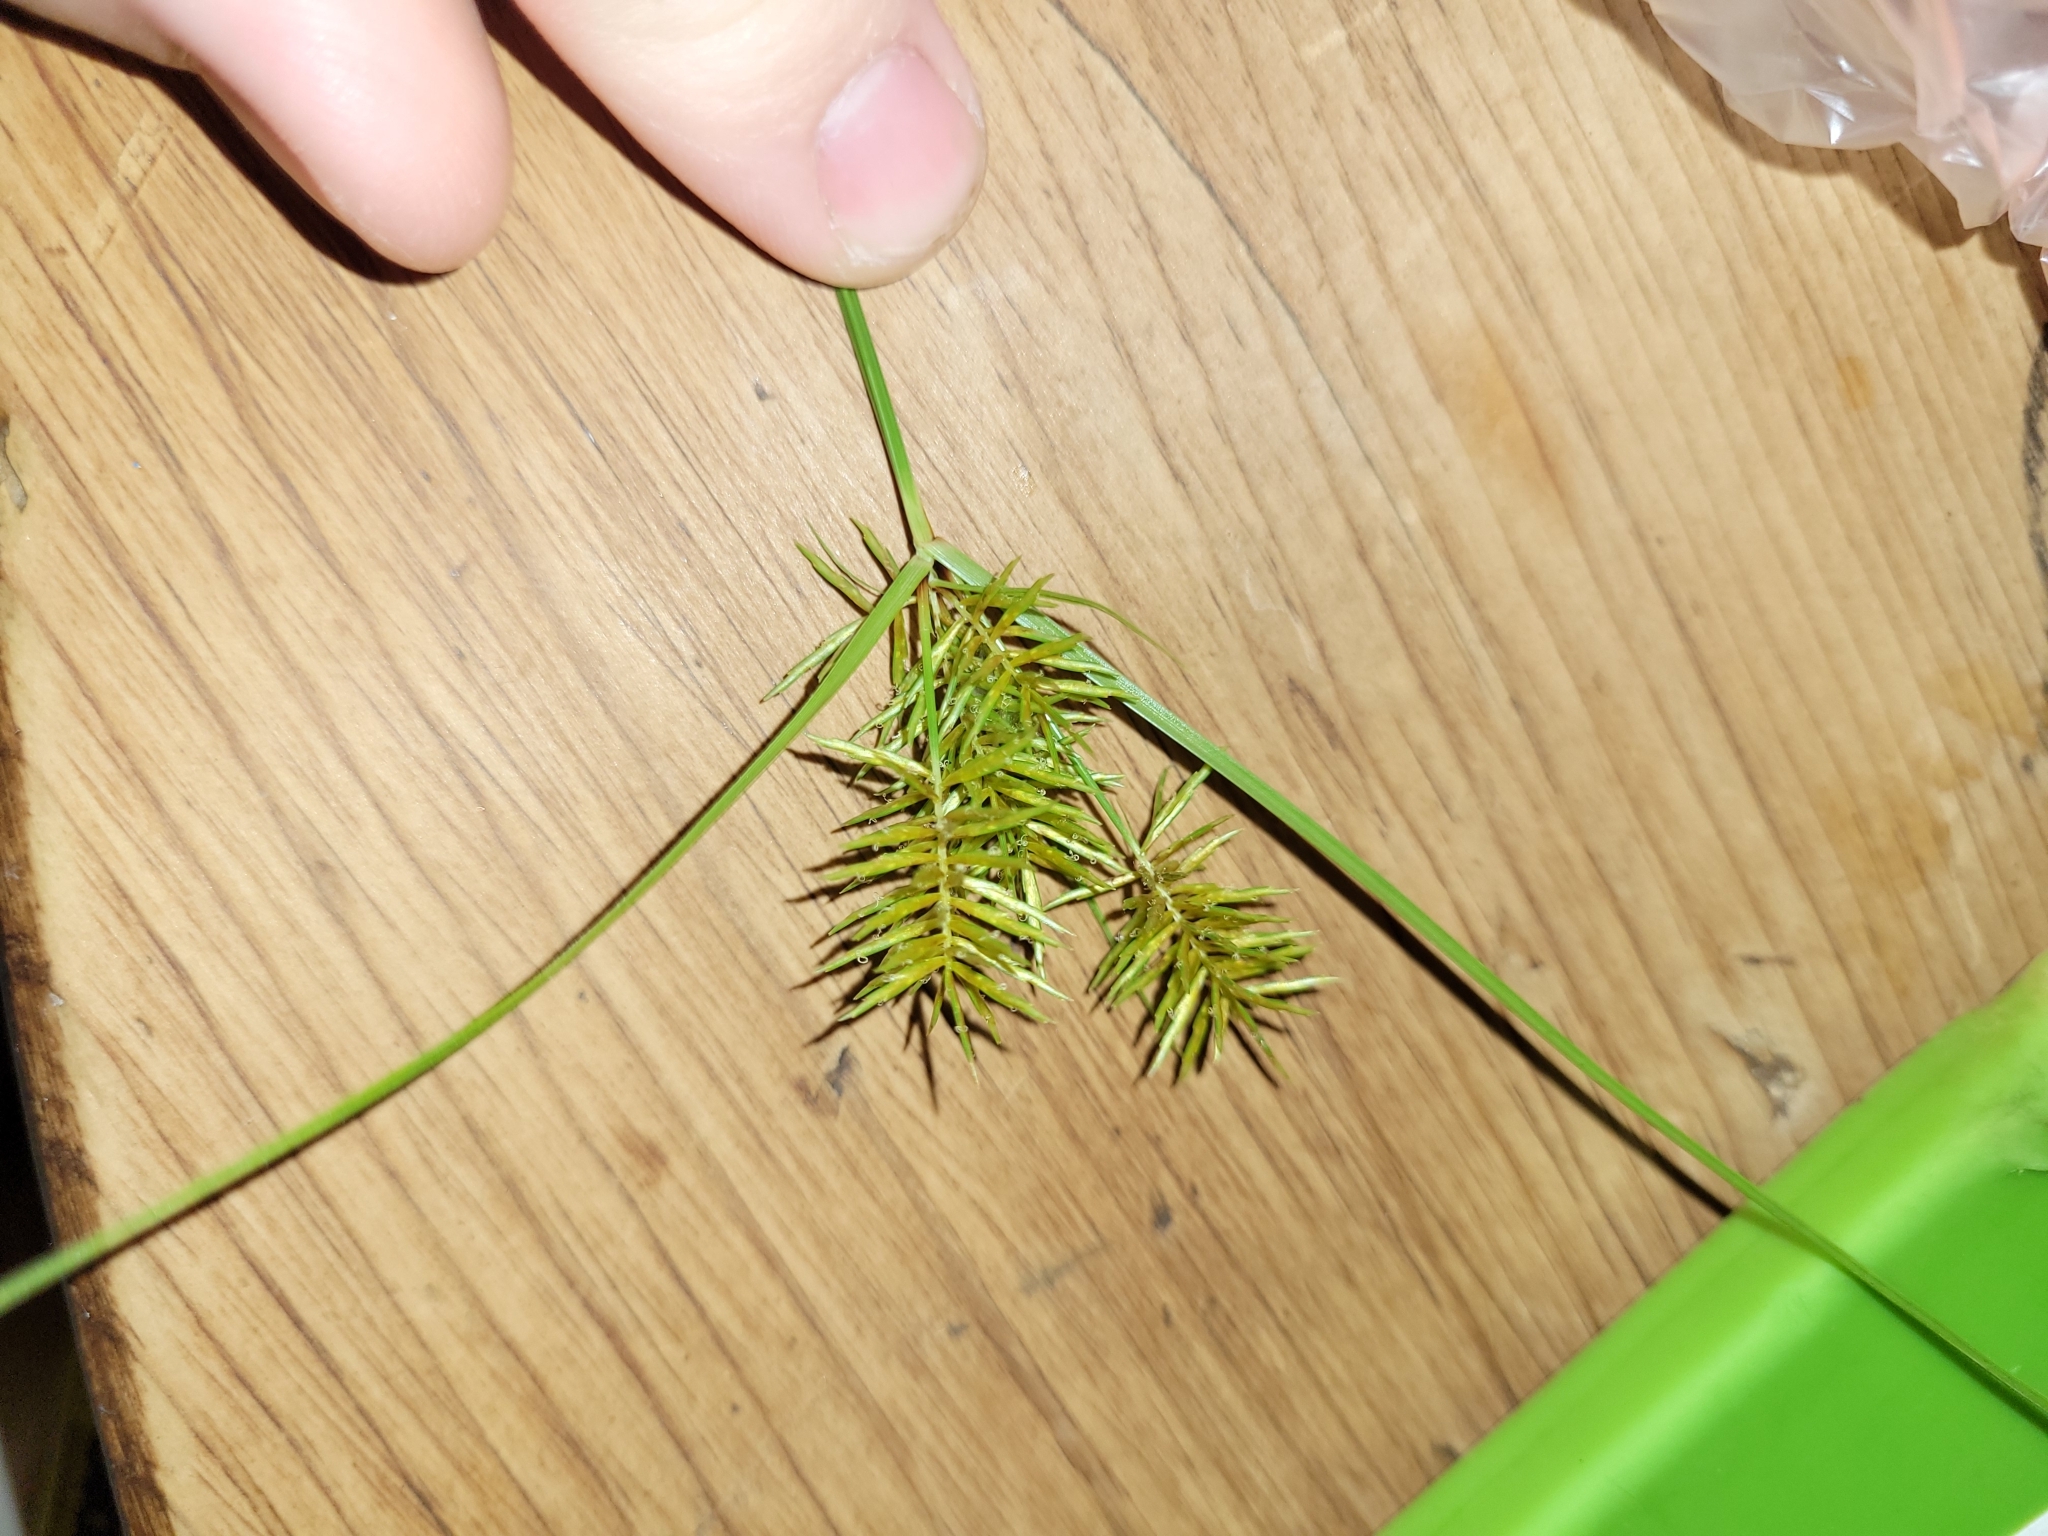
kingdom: Plantae
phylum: Tracheophyta
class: Liliopsida
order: Poales
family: Cyperaceae
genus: Cyperus
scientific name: Cyperus strigosus
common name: False nutsedge
